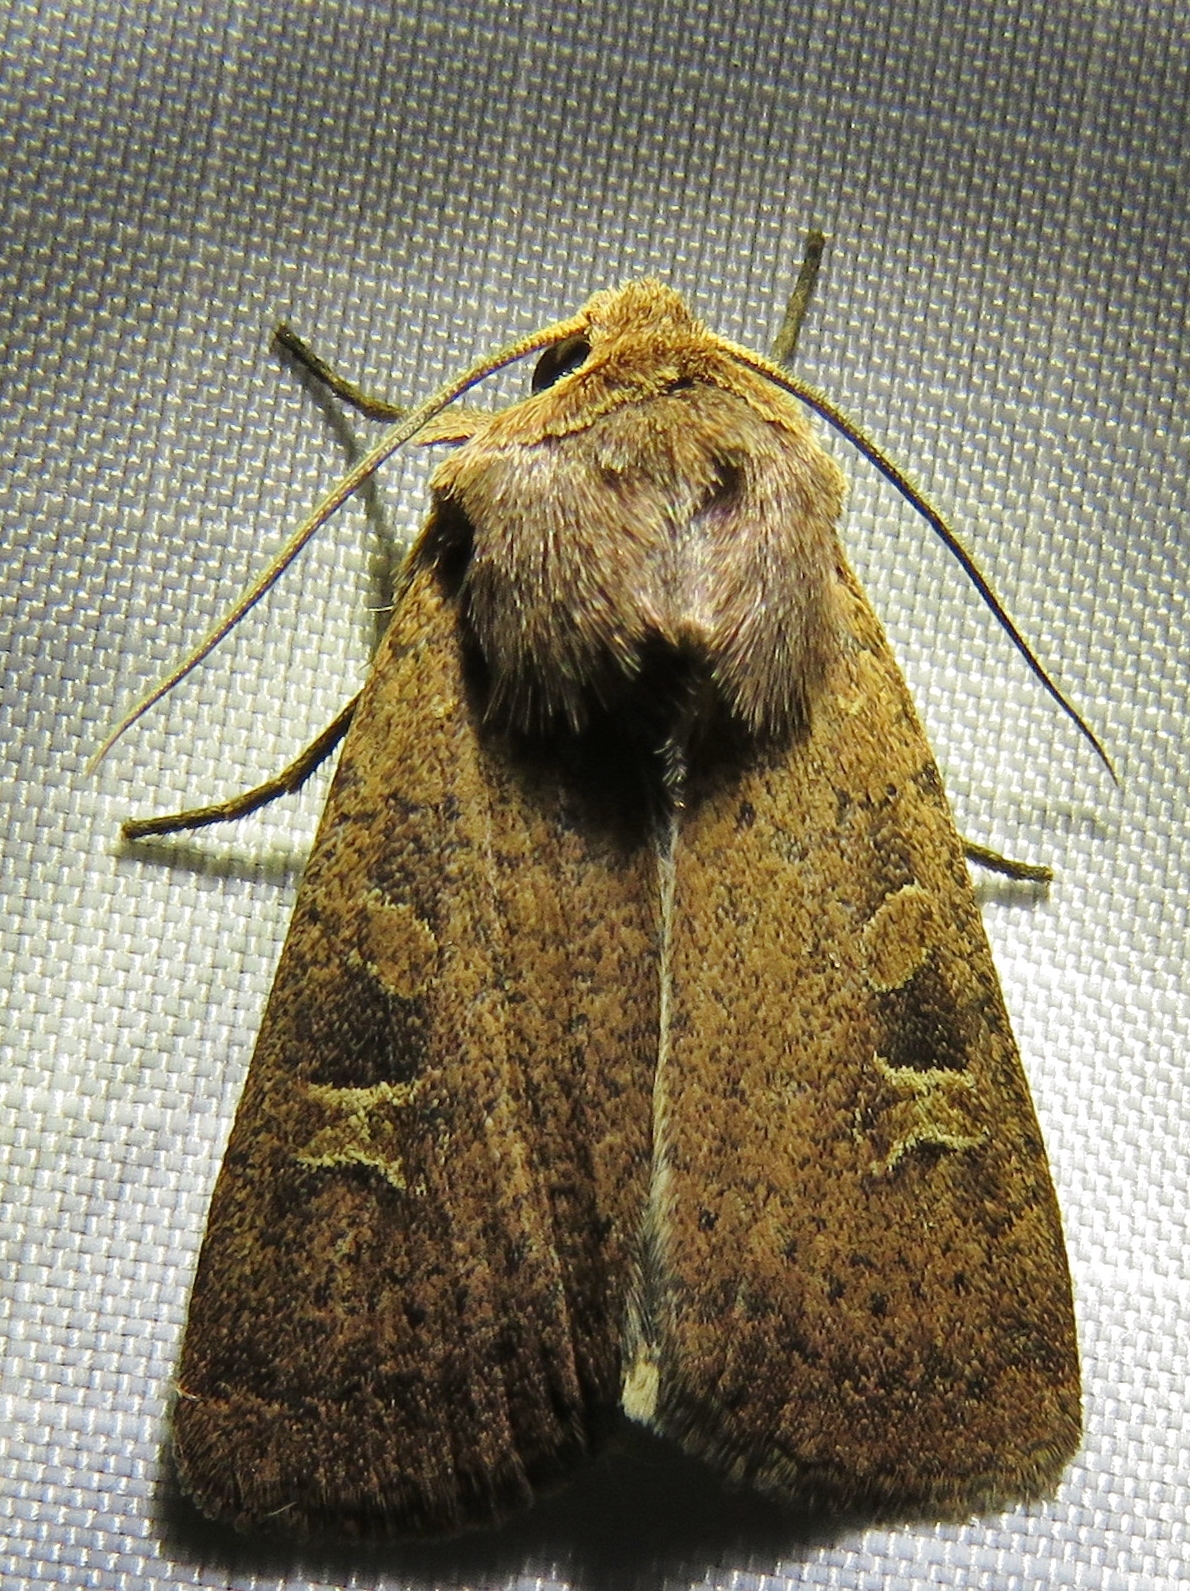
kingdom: Animalia
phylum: Arthropoda
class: Insecta
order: Lepidoptera
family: Noctuidae
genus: Xestia
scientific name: Xestia xanthographa
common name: Square-spot rustic
